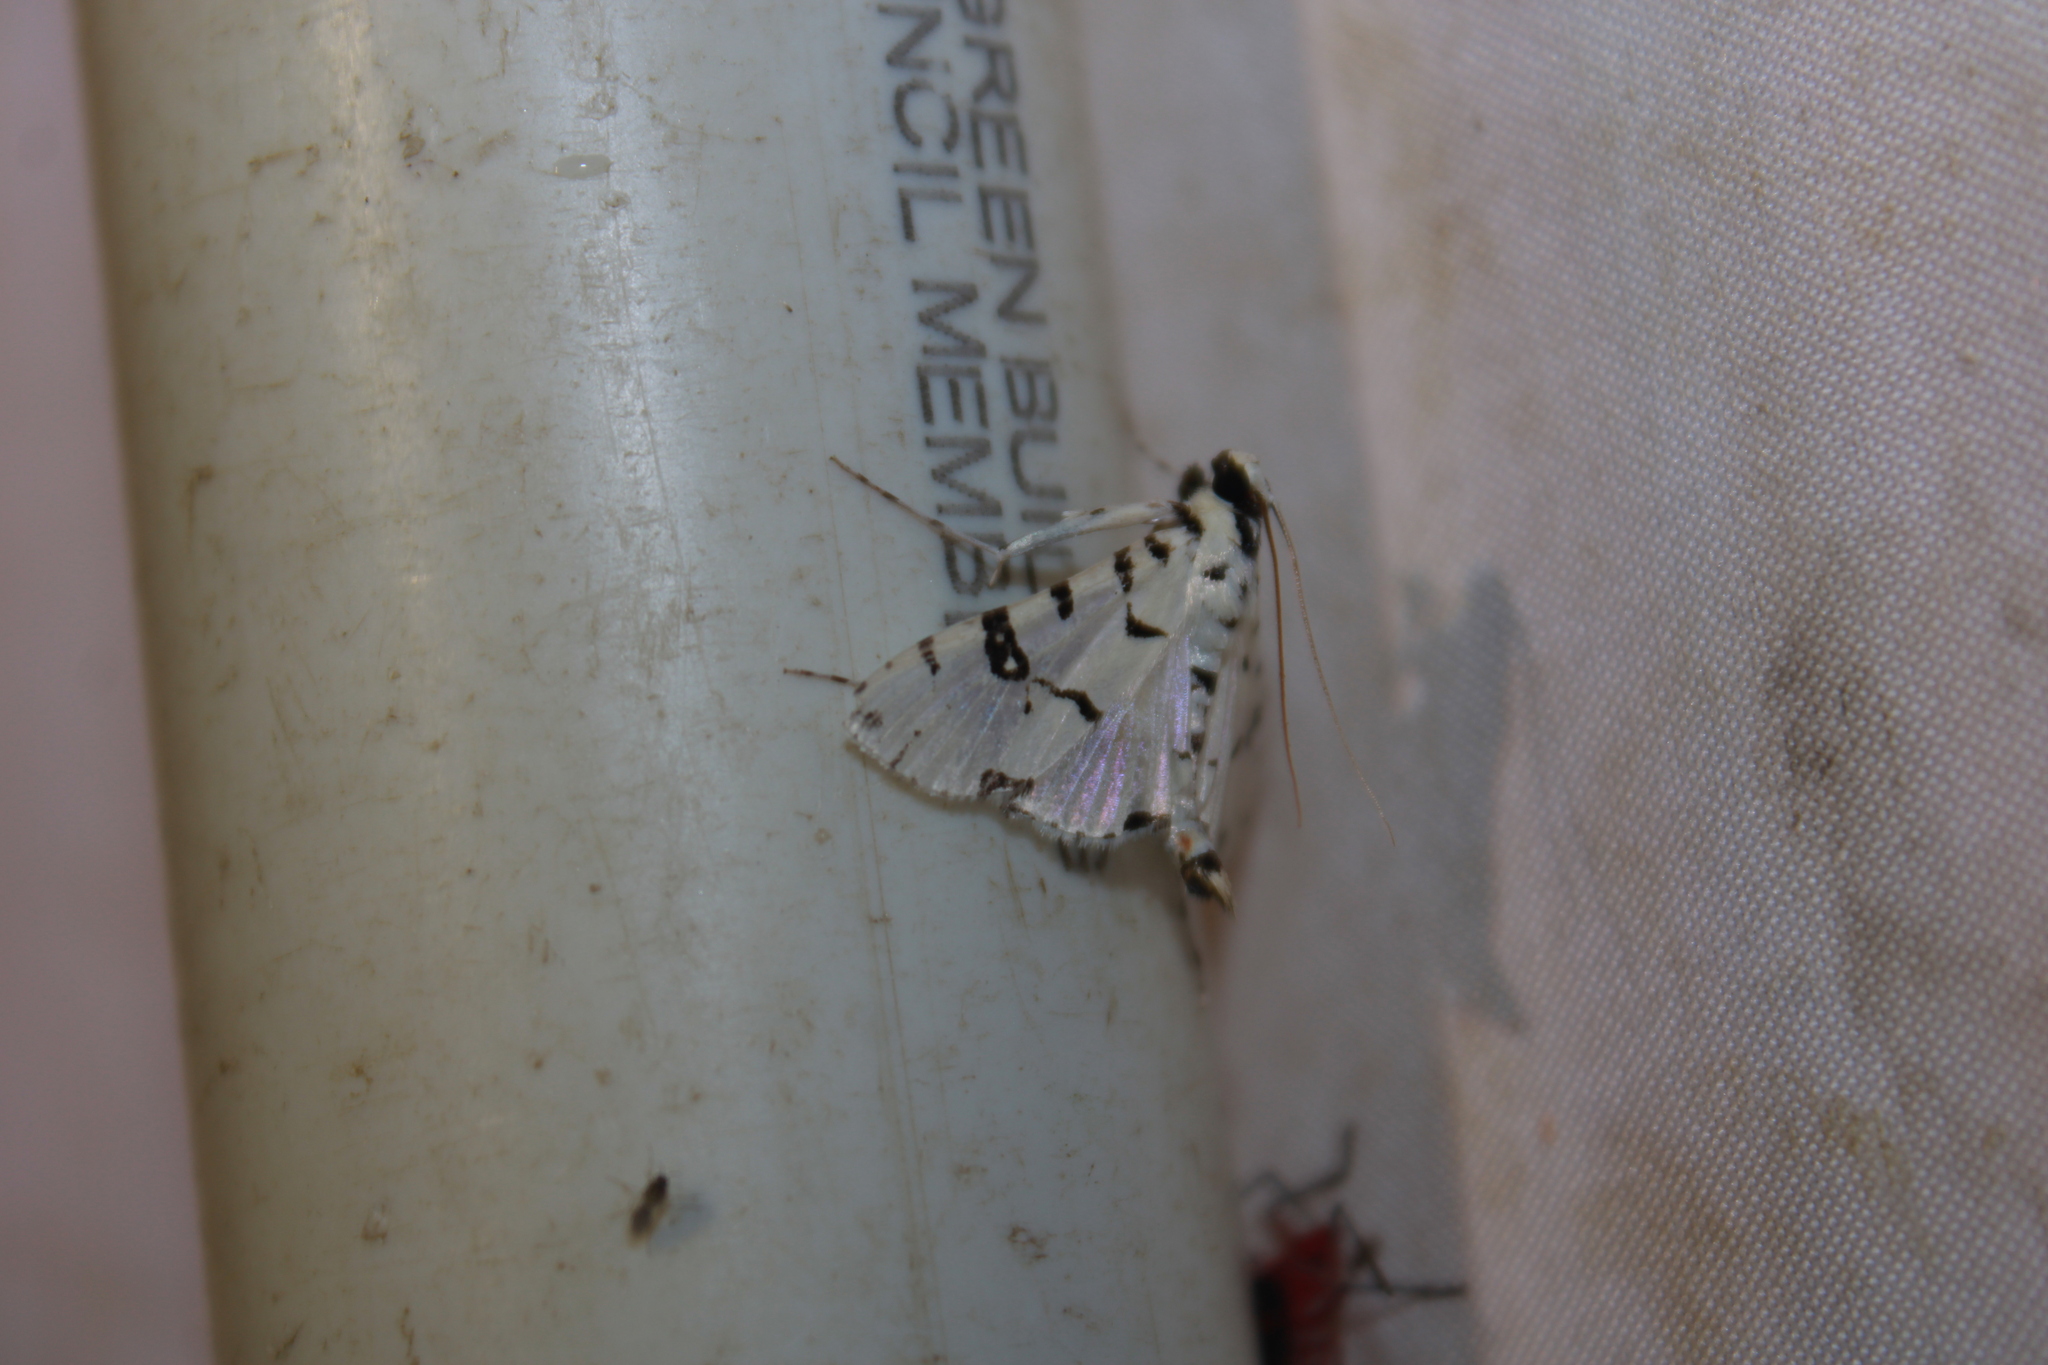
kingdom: Animalia
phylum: Arthropoda
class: Insecta
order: Lepidoptera
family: Crambidae
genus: Conchylodes
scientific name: Conchylodes diphteralis
